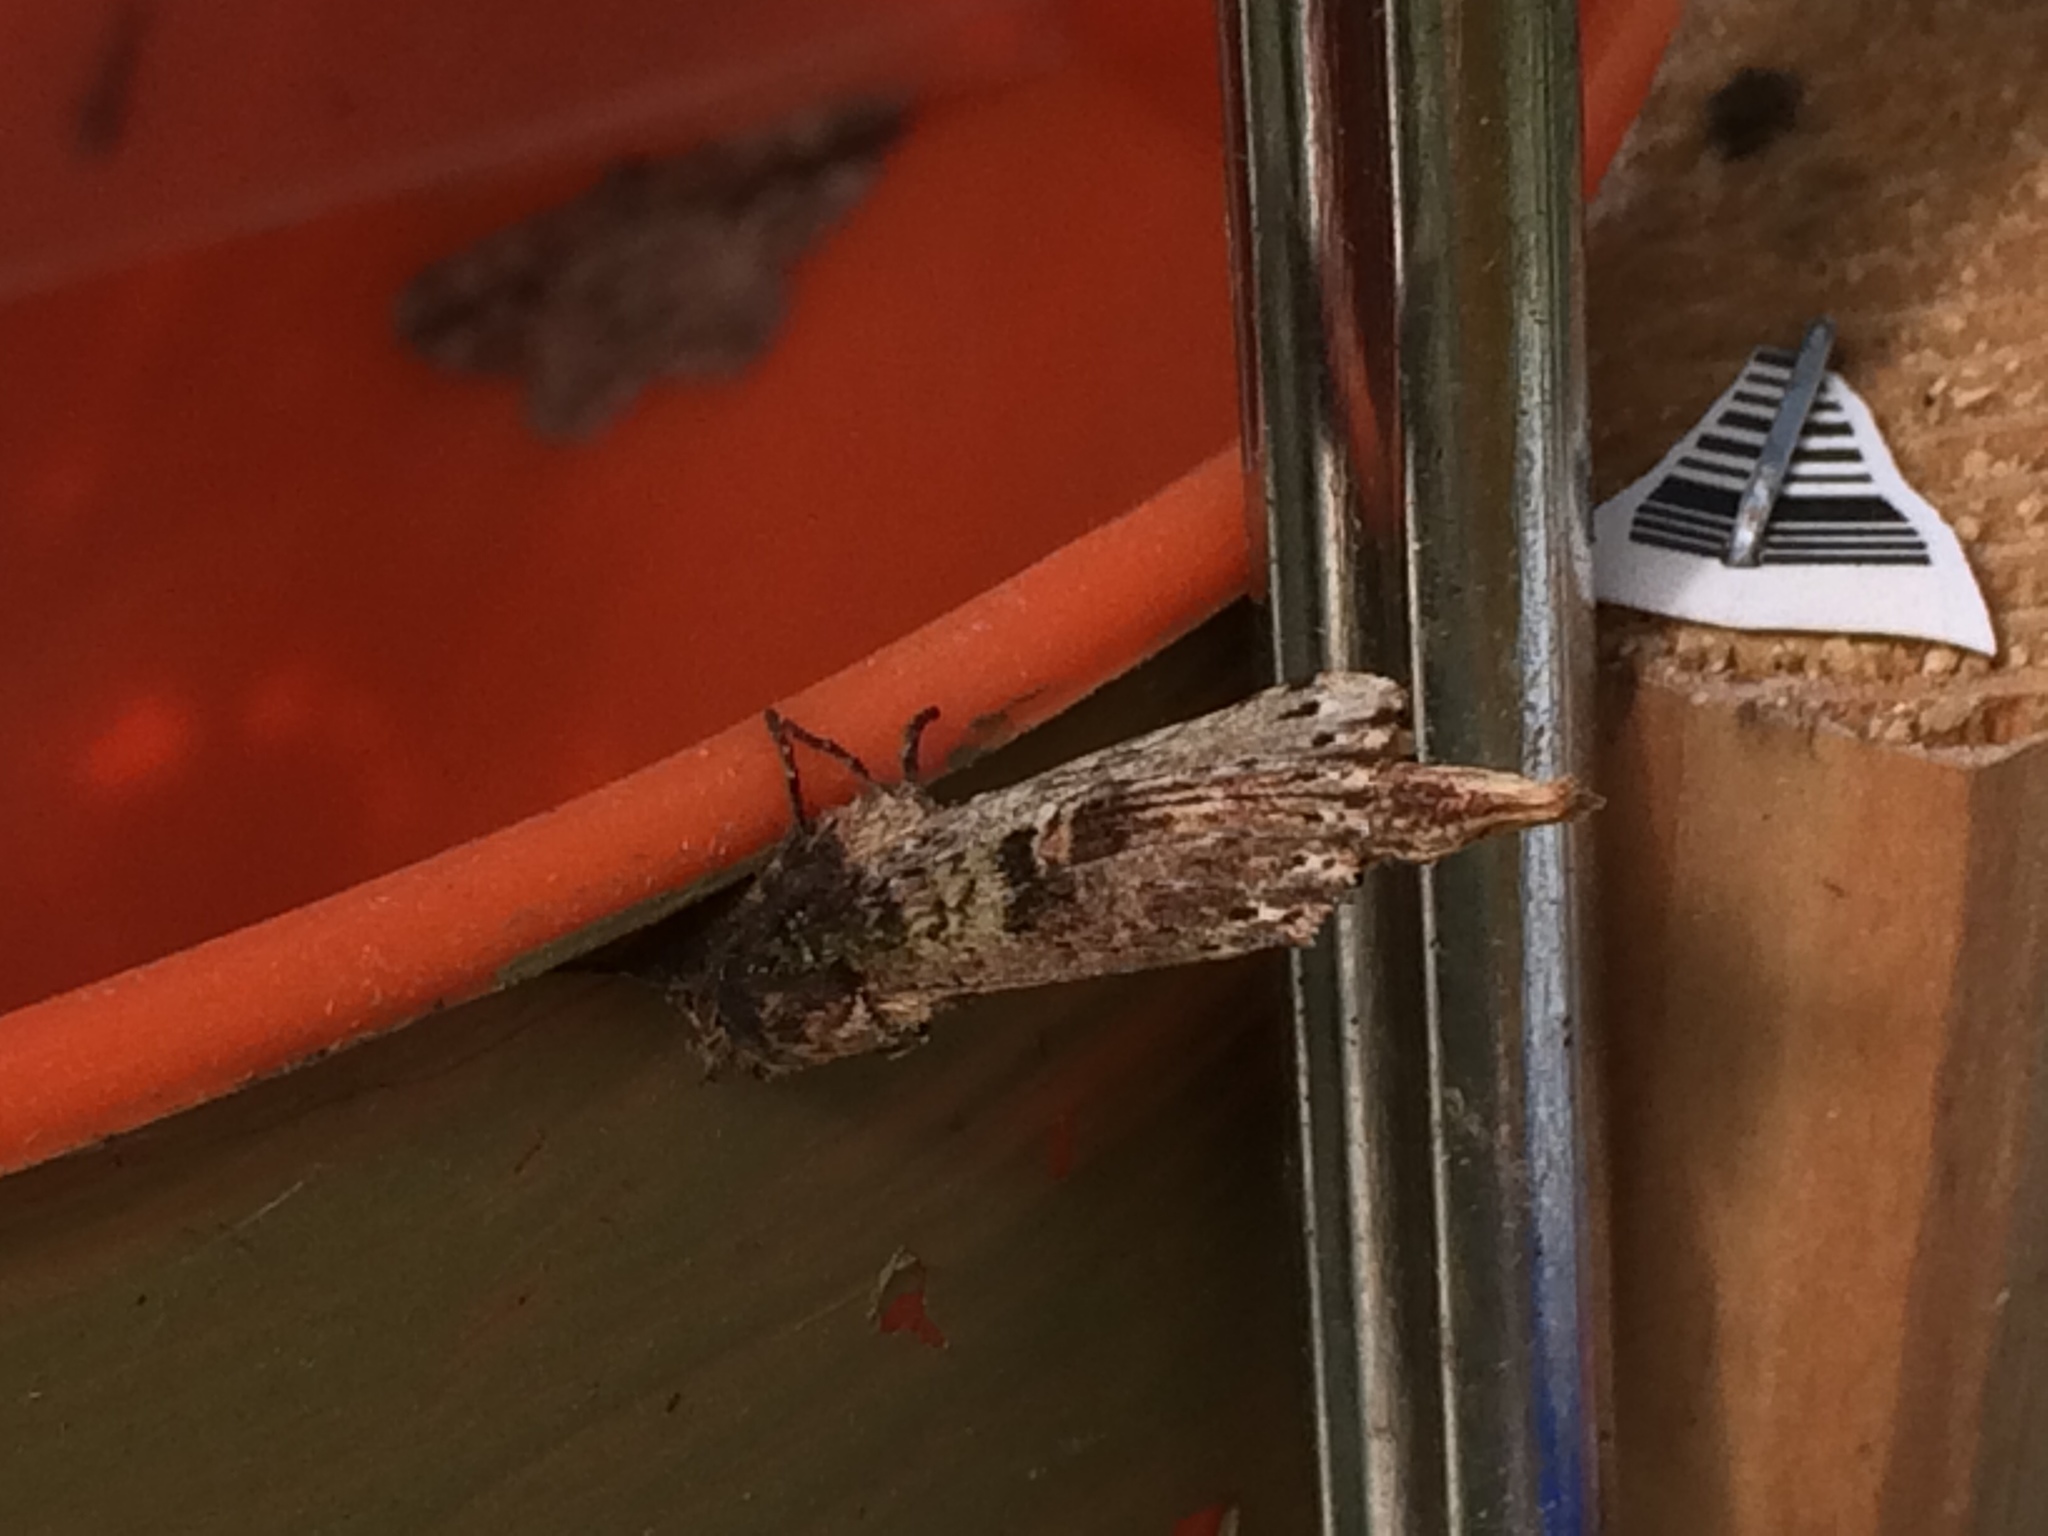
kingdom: Animalia
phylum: Arthropoda
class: Insecta
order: Lepidoptera
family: Notodontidae
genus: Schizura
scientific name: Schizura ipomaeae
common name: Morning-glory prominent
